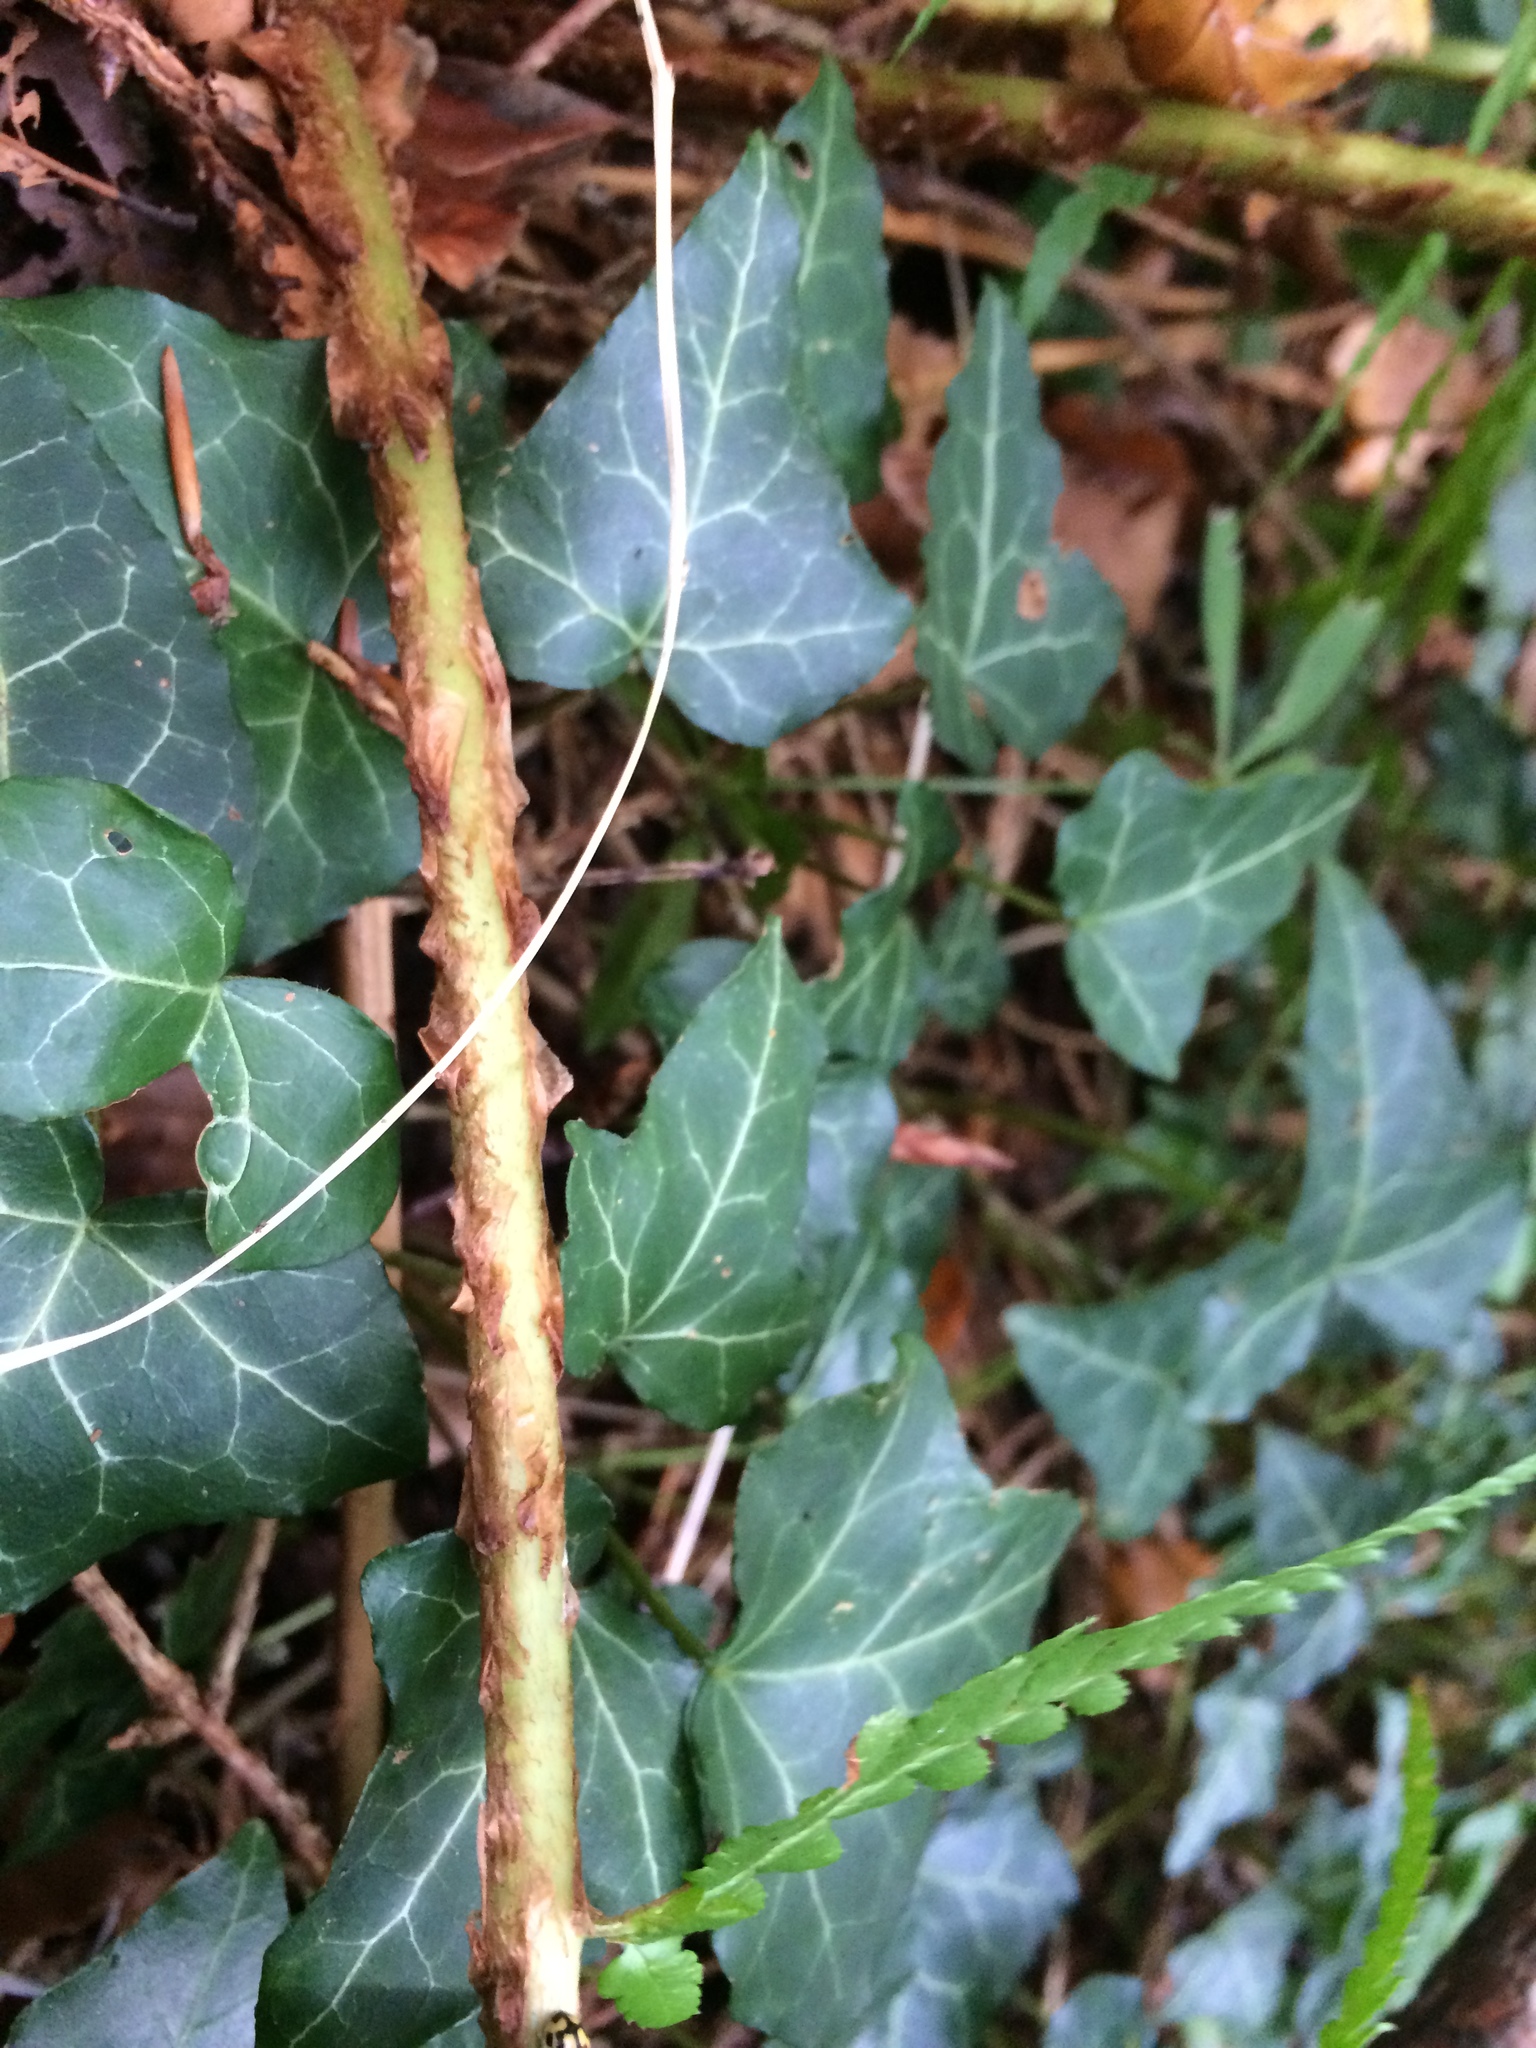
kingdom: Plantae
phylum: Tracheophyta
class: Polypodiopsida
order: Polypodiales
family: Dryopteridaceae
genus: Dryopteris
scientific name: Dryopteris filix-mas
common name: Male fern
